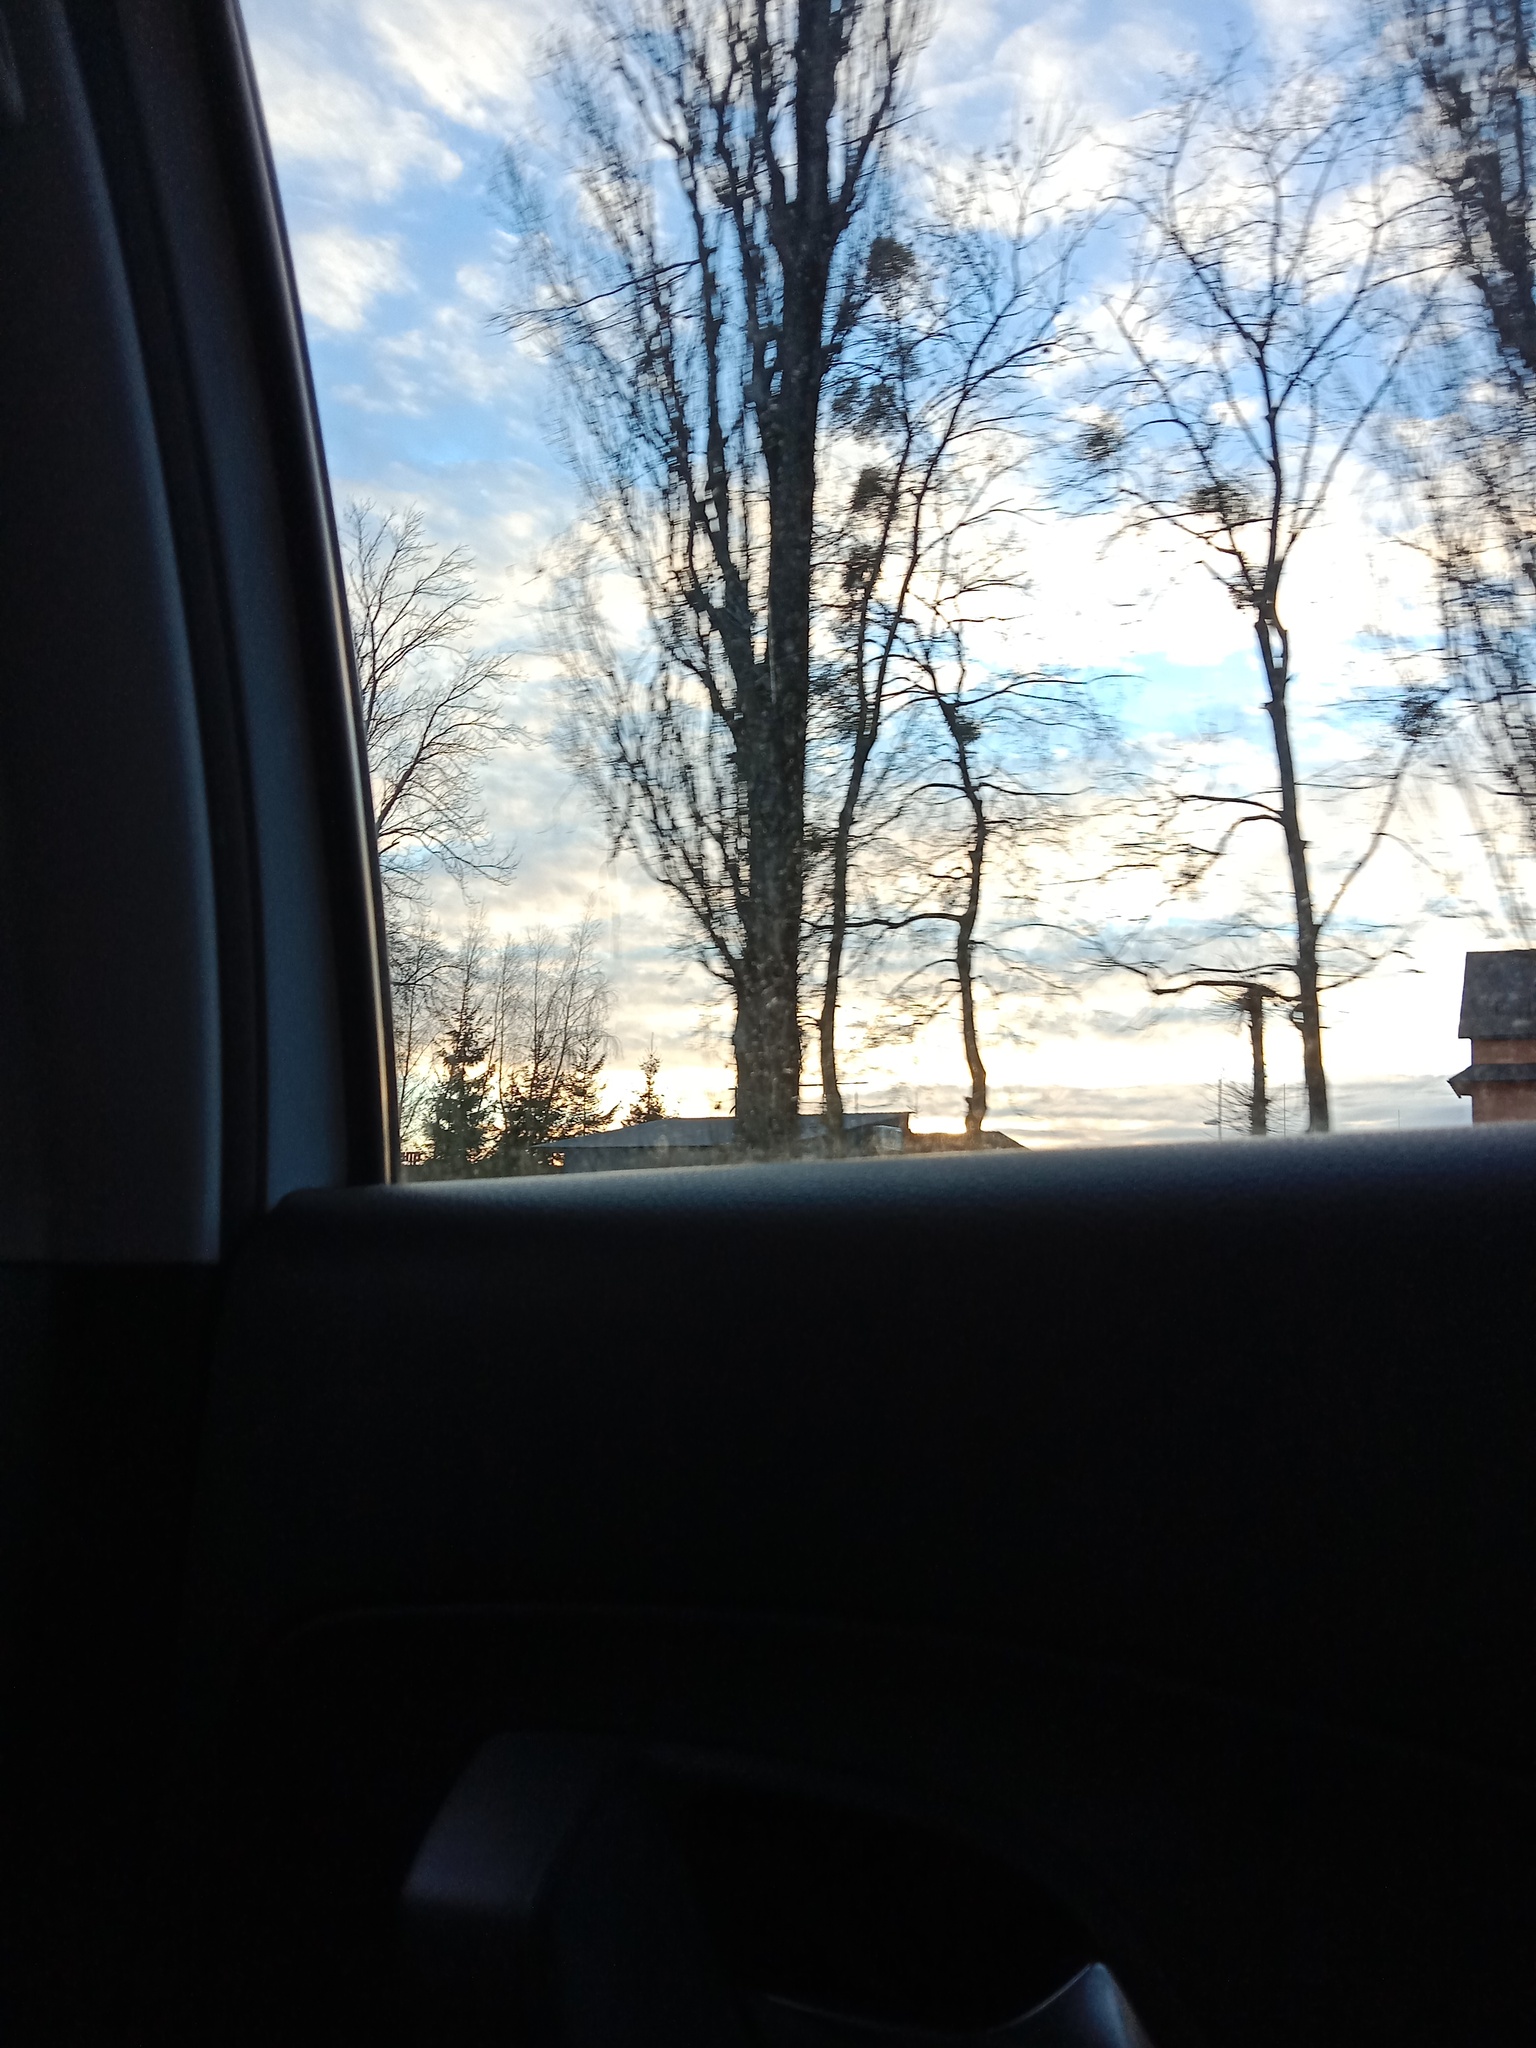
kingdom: Plantae
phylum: Tracheophyta
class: Magnoliopsida
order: Santalales
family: Viscaceae
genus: Viscum
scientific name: Viscum album
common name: Mistletoe
